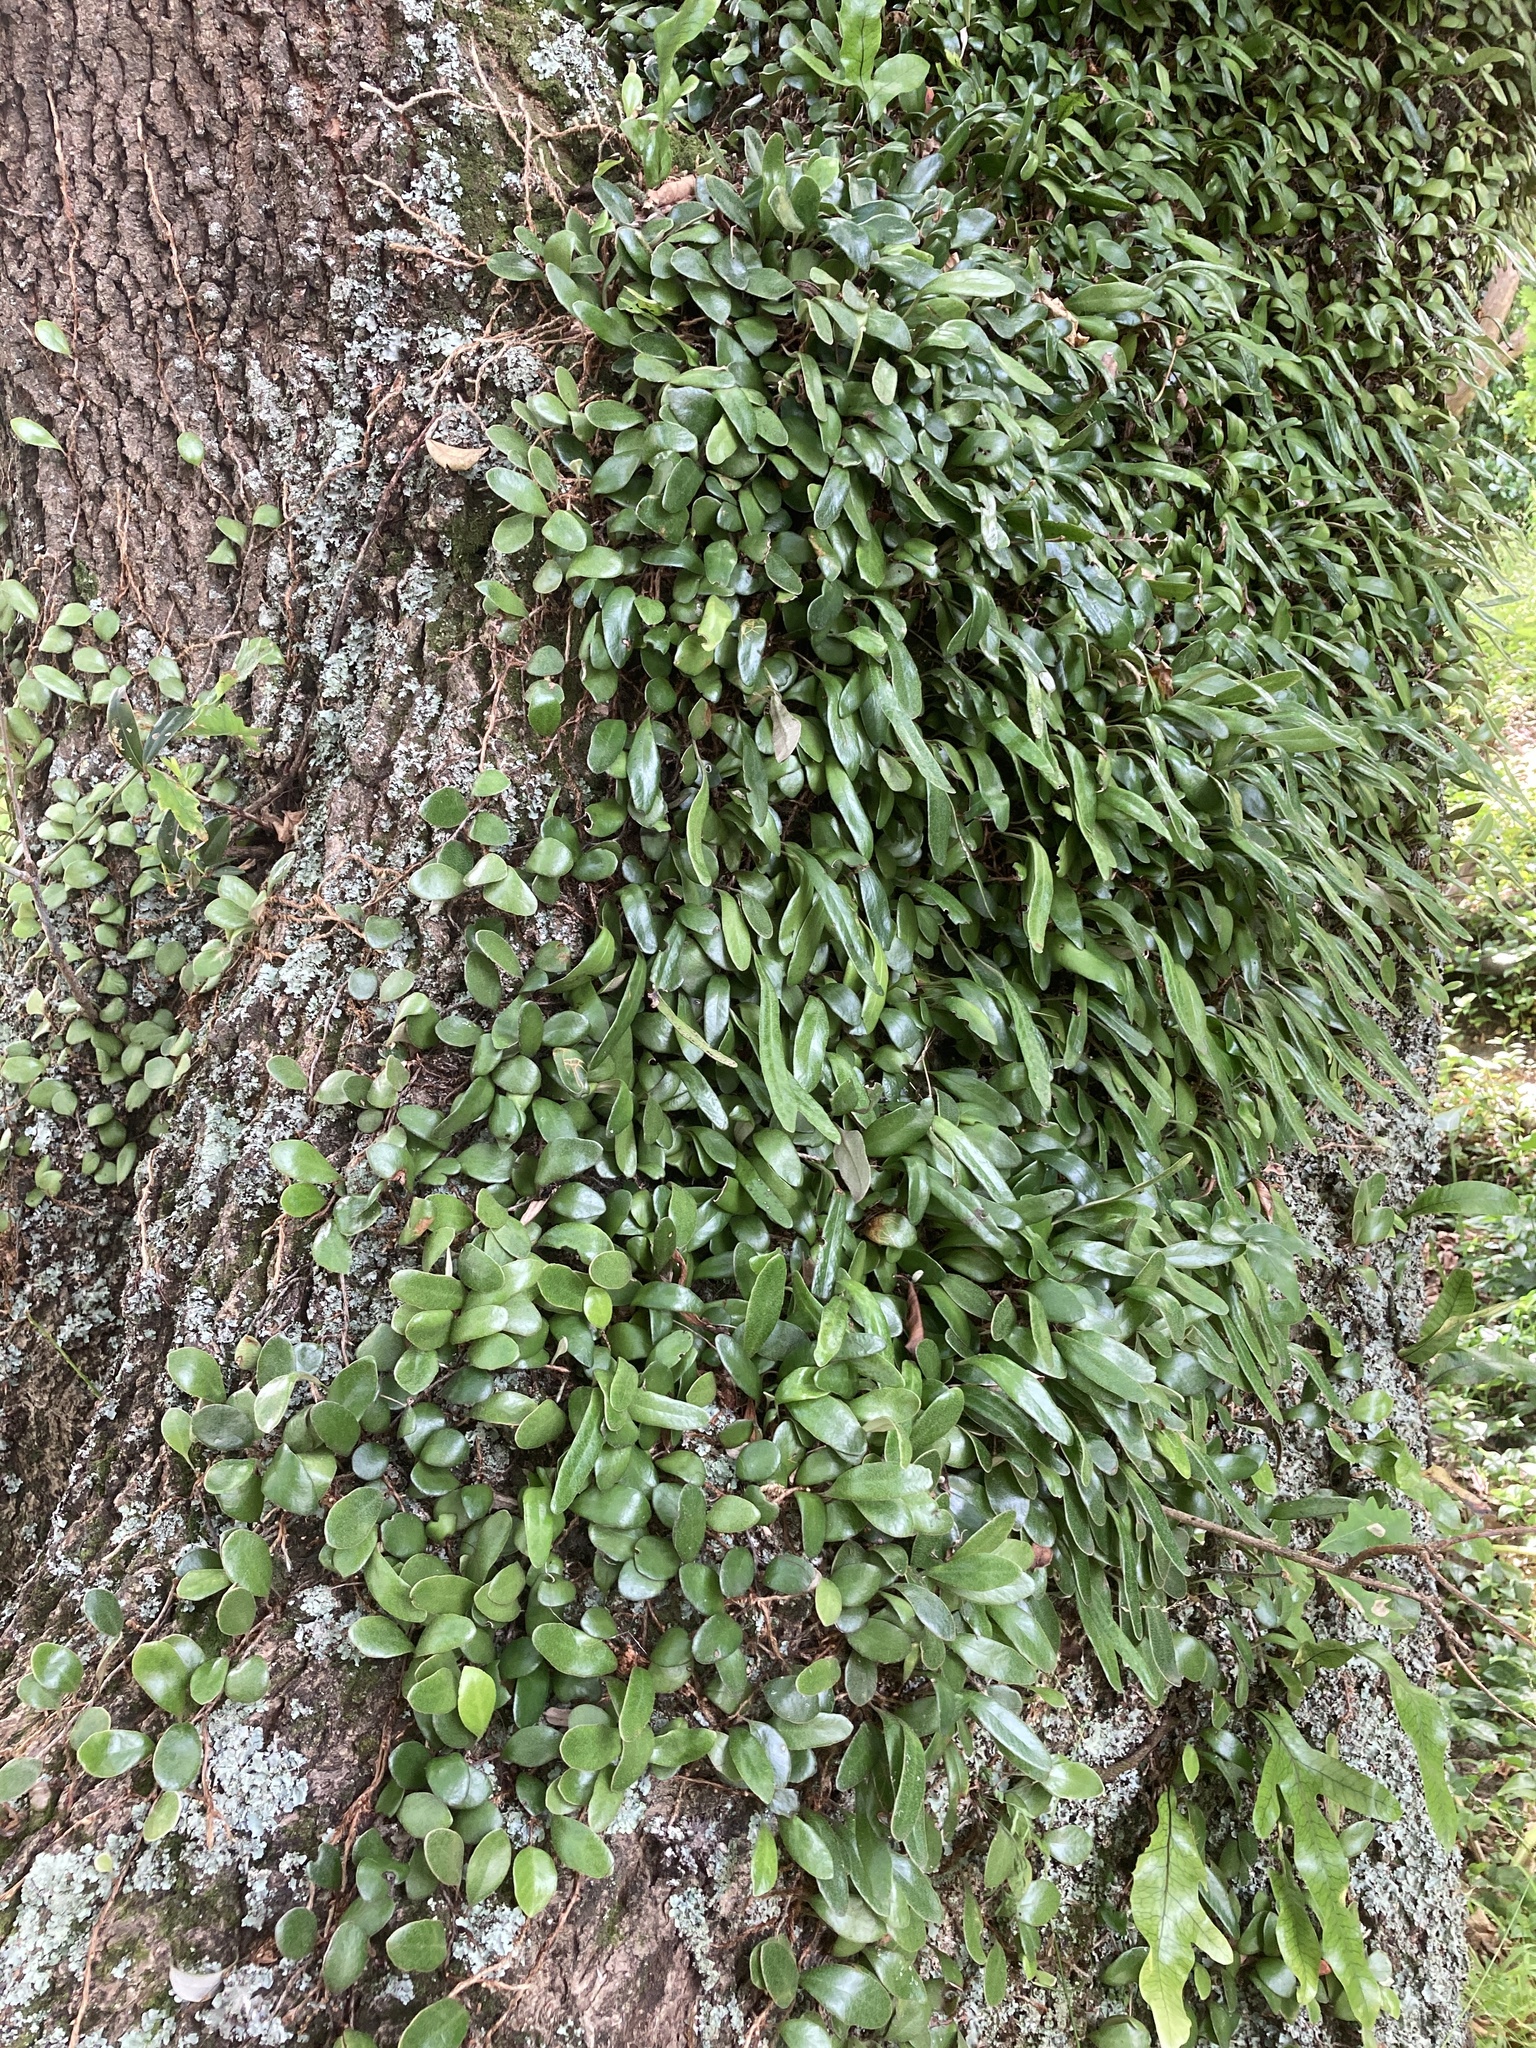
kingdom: Plantae
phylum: Tracheophyta
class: Polypodiopsida
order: Polypodiales
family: Polypodiaceae
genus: Pyrrosia
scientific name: Pyrrosia eleagnifolia
